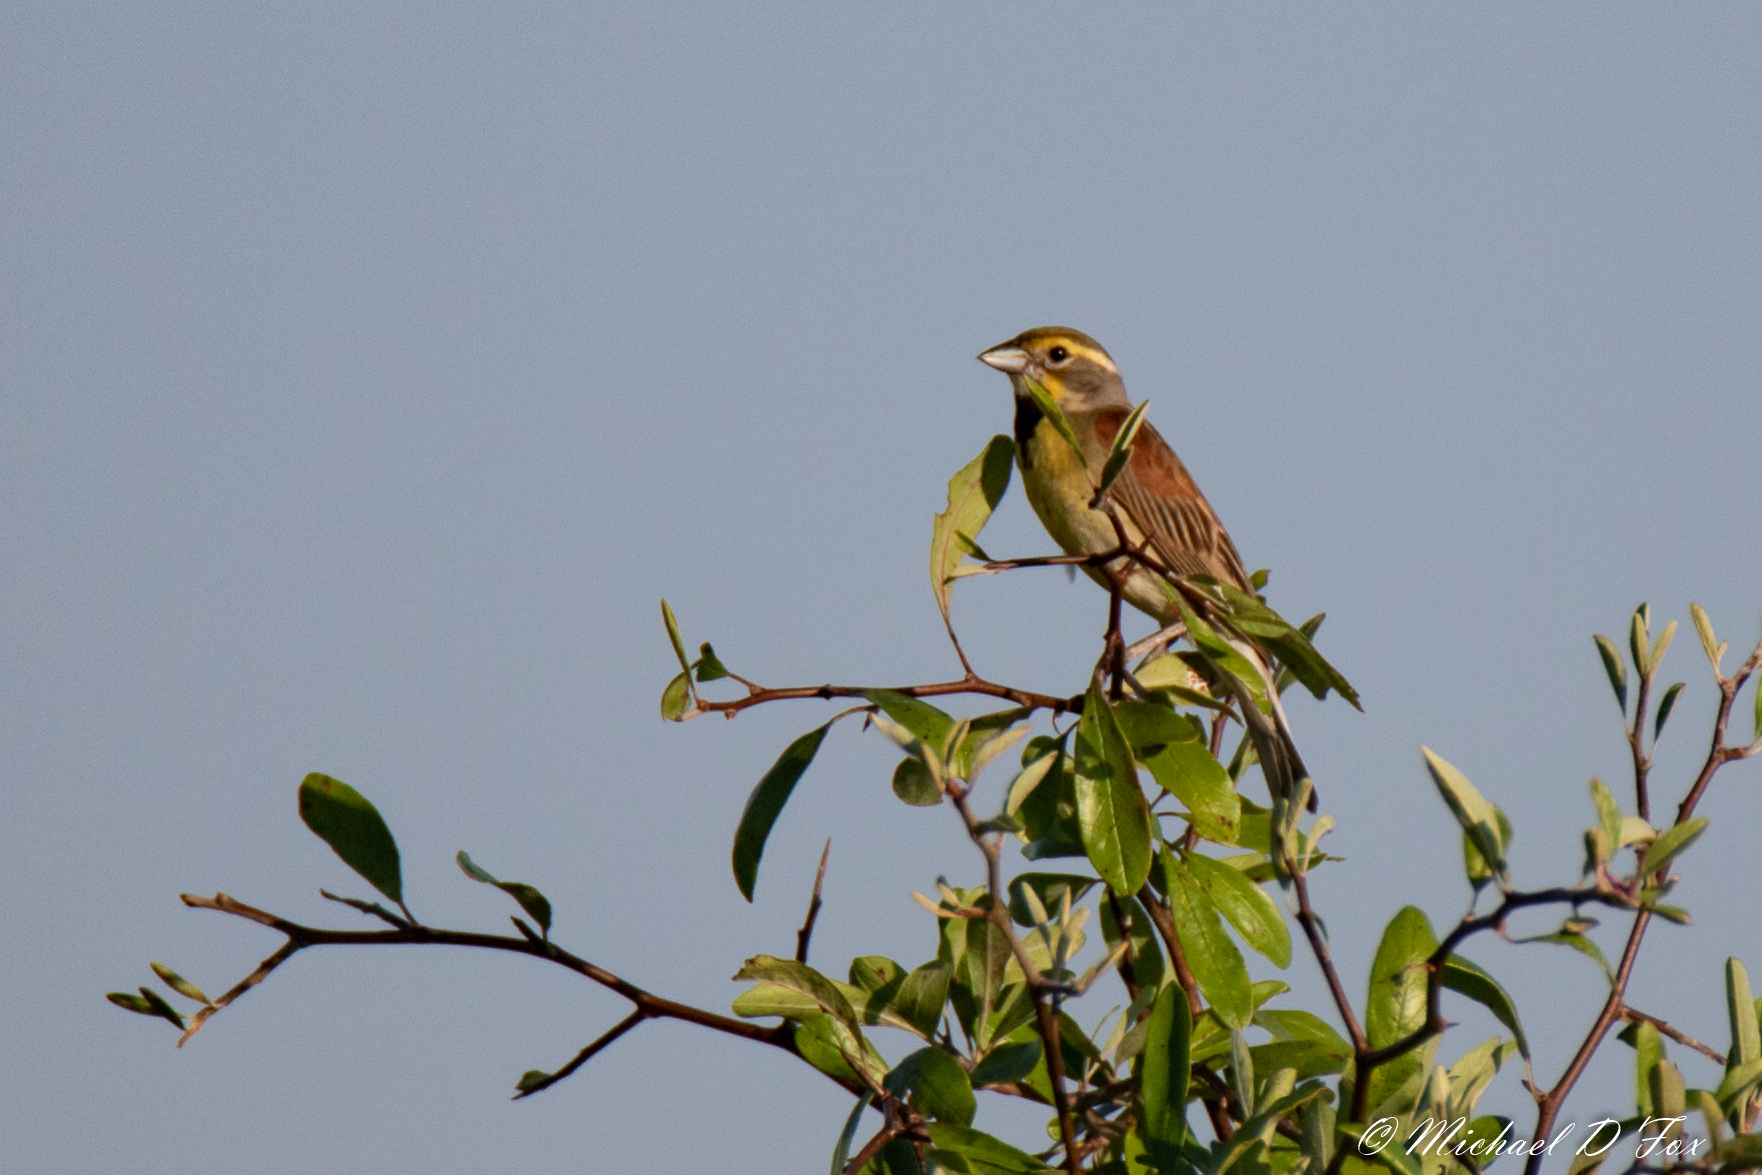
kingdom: Animalia
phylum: Chordata
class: Aves
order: Passeriformes
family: Cardinalidae
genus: Spiza
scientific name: Spiza americana
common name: Dickcissel
